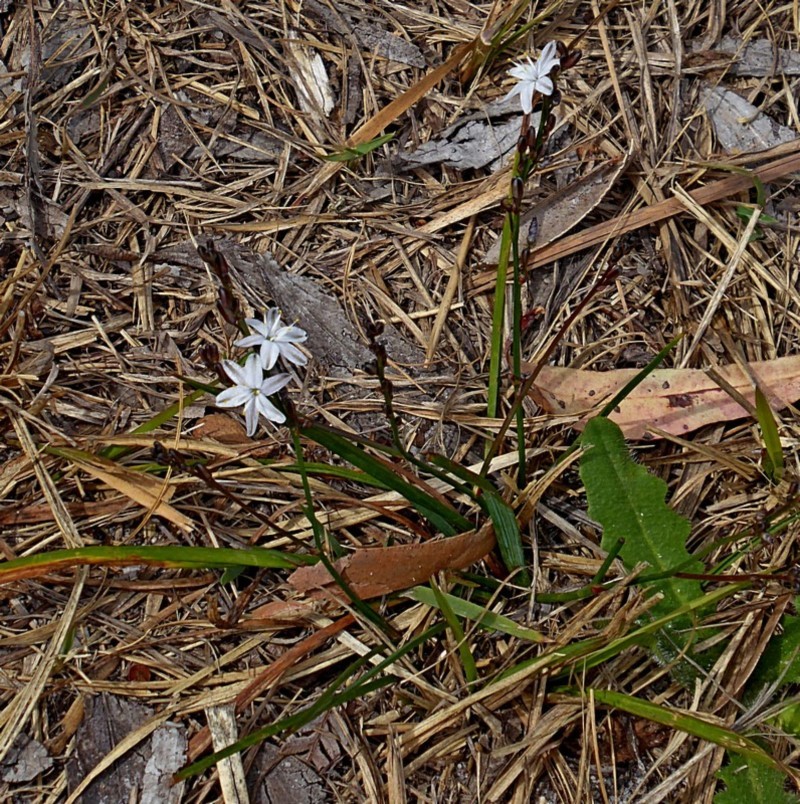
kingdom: Plantae
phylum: Tracheophyta
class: Liliopsida
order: Asparagales
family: Asphodelaceae
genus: Caesia
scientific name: Caesia parviflora
